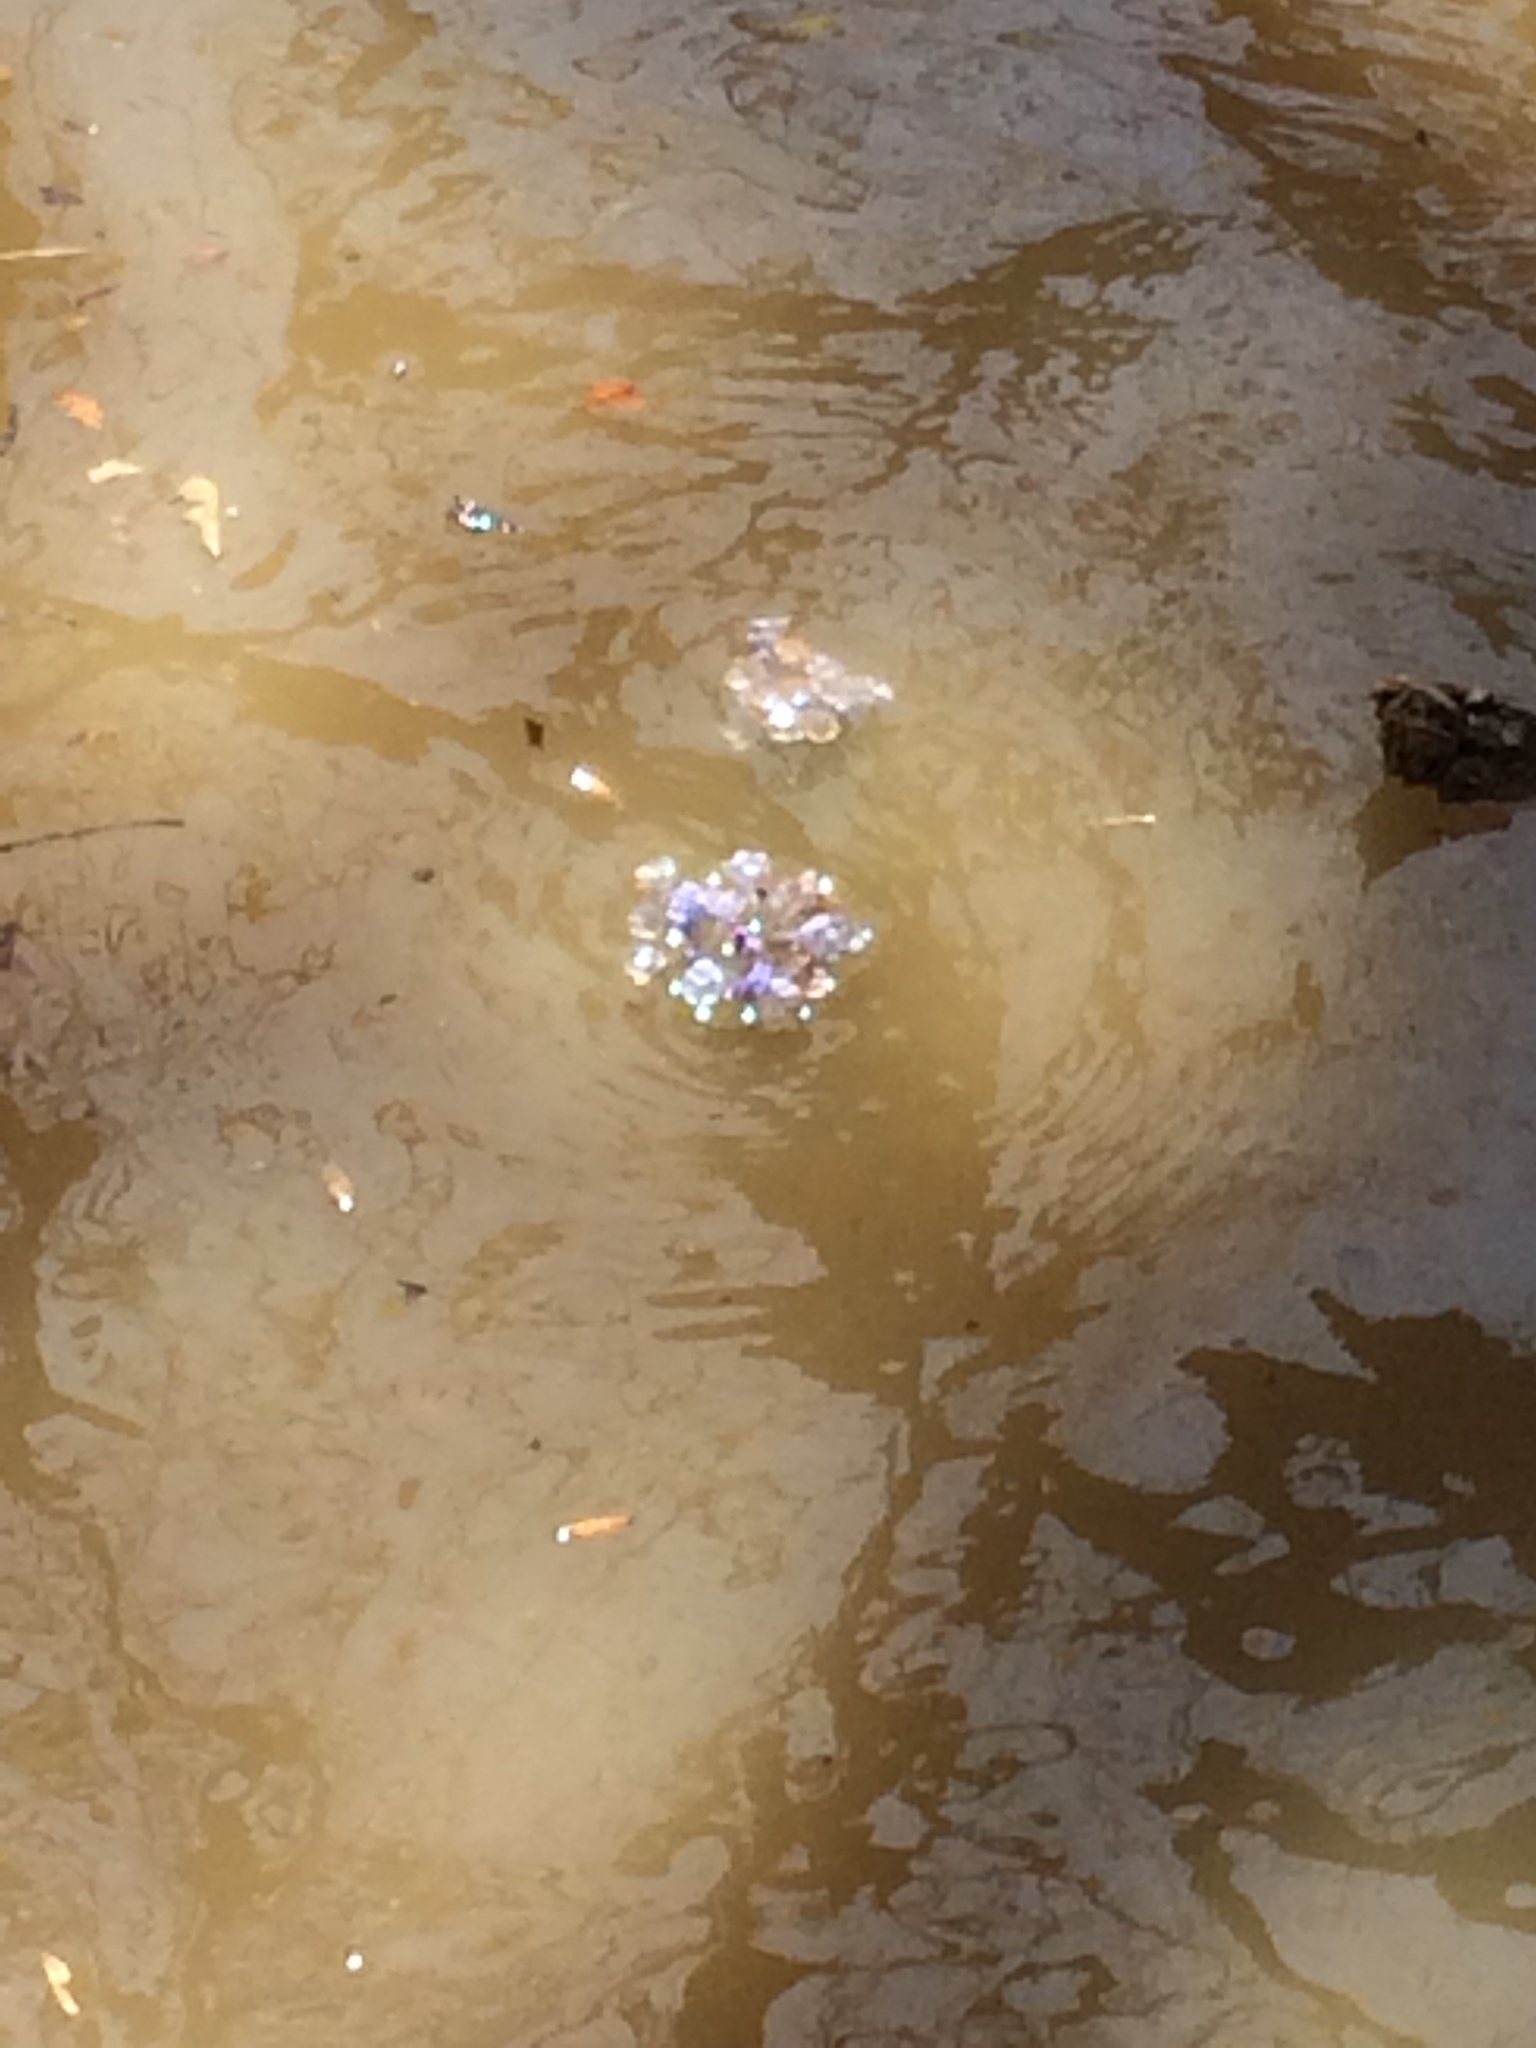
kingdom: Plantae
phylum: Tracheophyta
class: Magnoliopsida
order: Boraginales
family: Boraginaceae
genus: Mertensia
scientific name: Mertensia virginica
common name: Virginia bluebells
